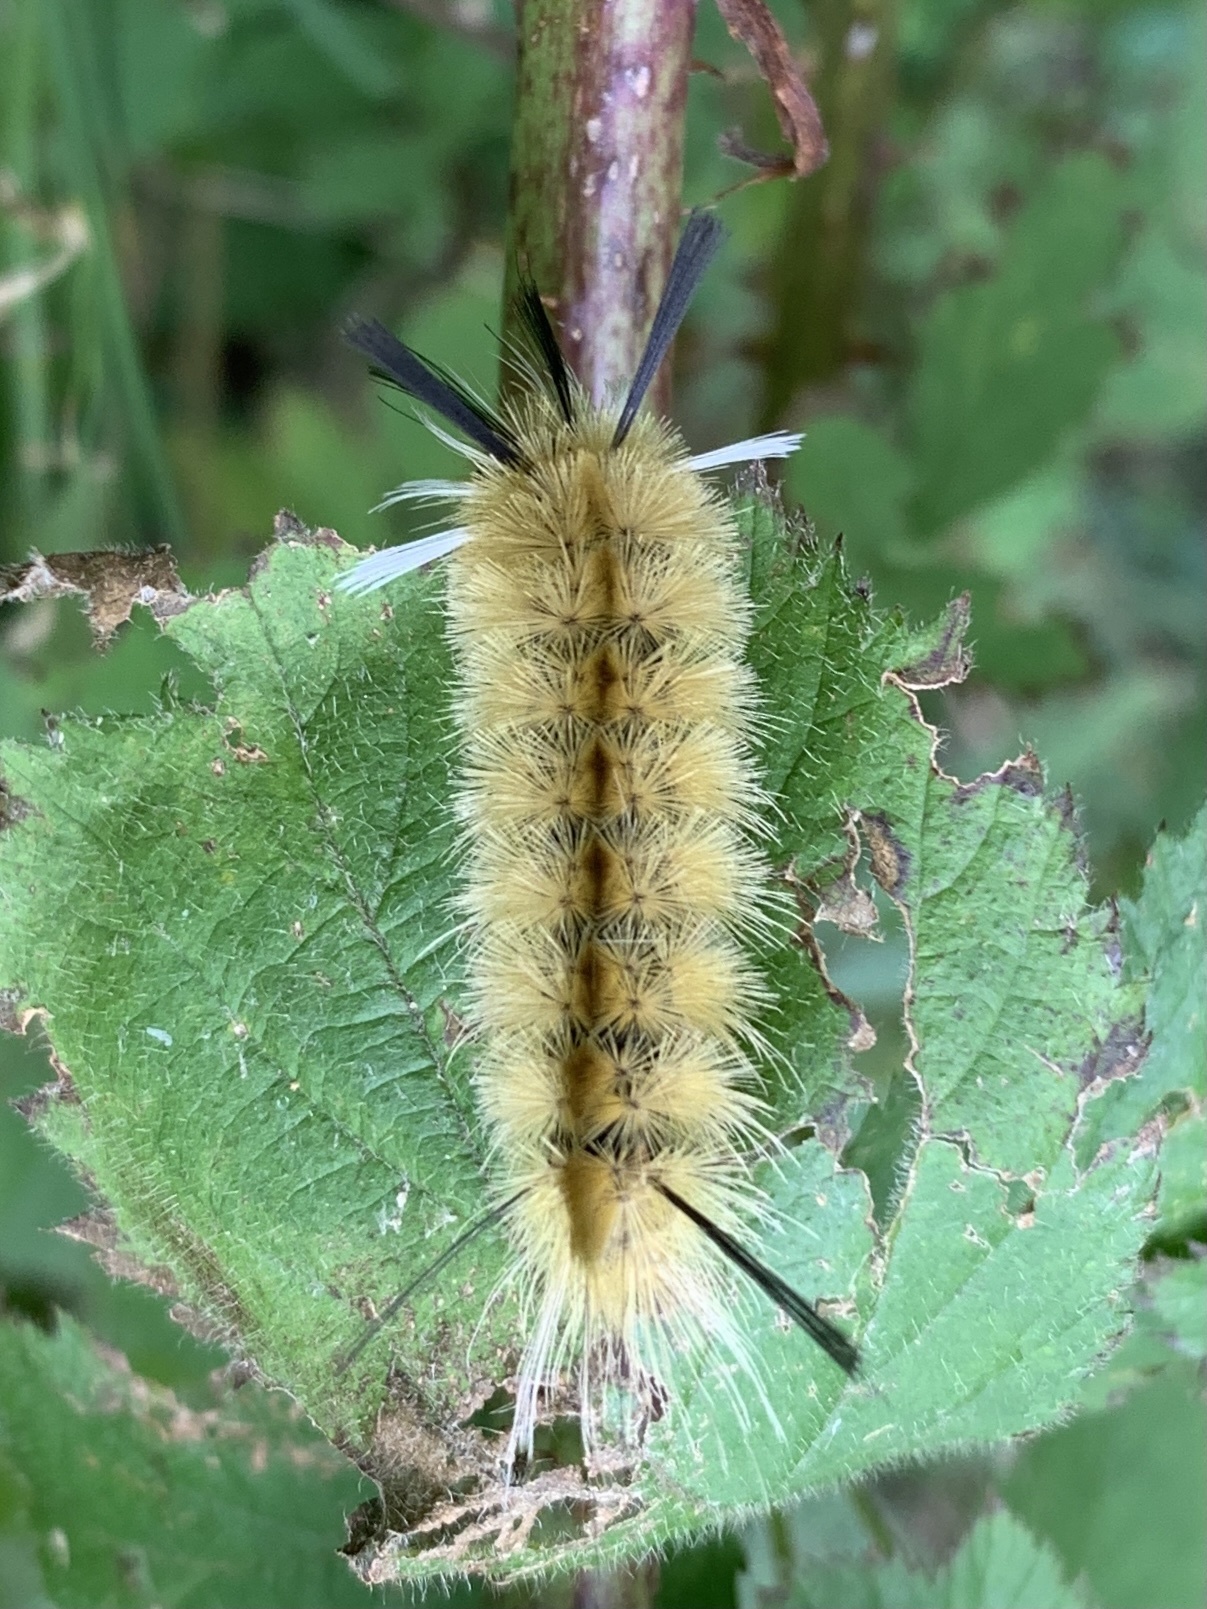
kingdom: Animalia
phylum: Arthropoda
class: Insecta
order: Lepidoptera
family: Erebidae
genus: Halysidota
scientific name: Halysidota tessellaris
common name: Banded tussock moth
